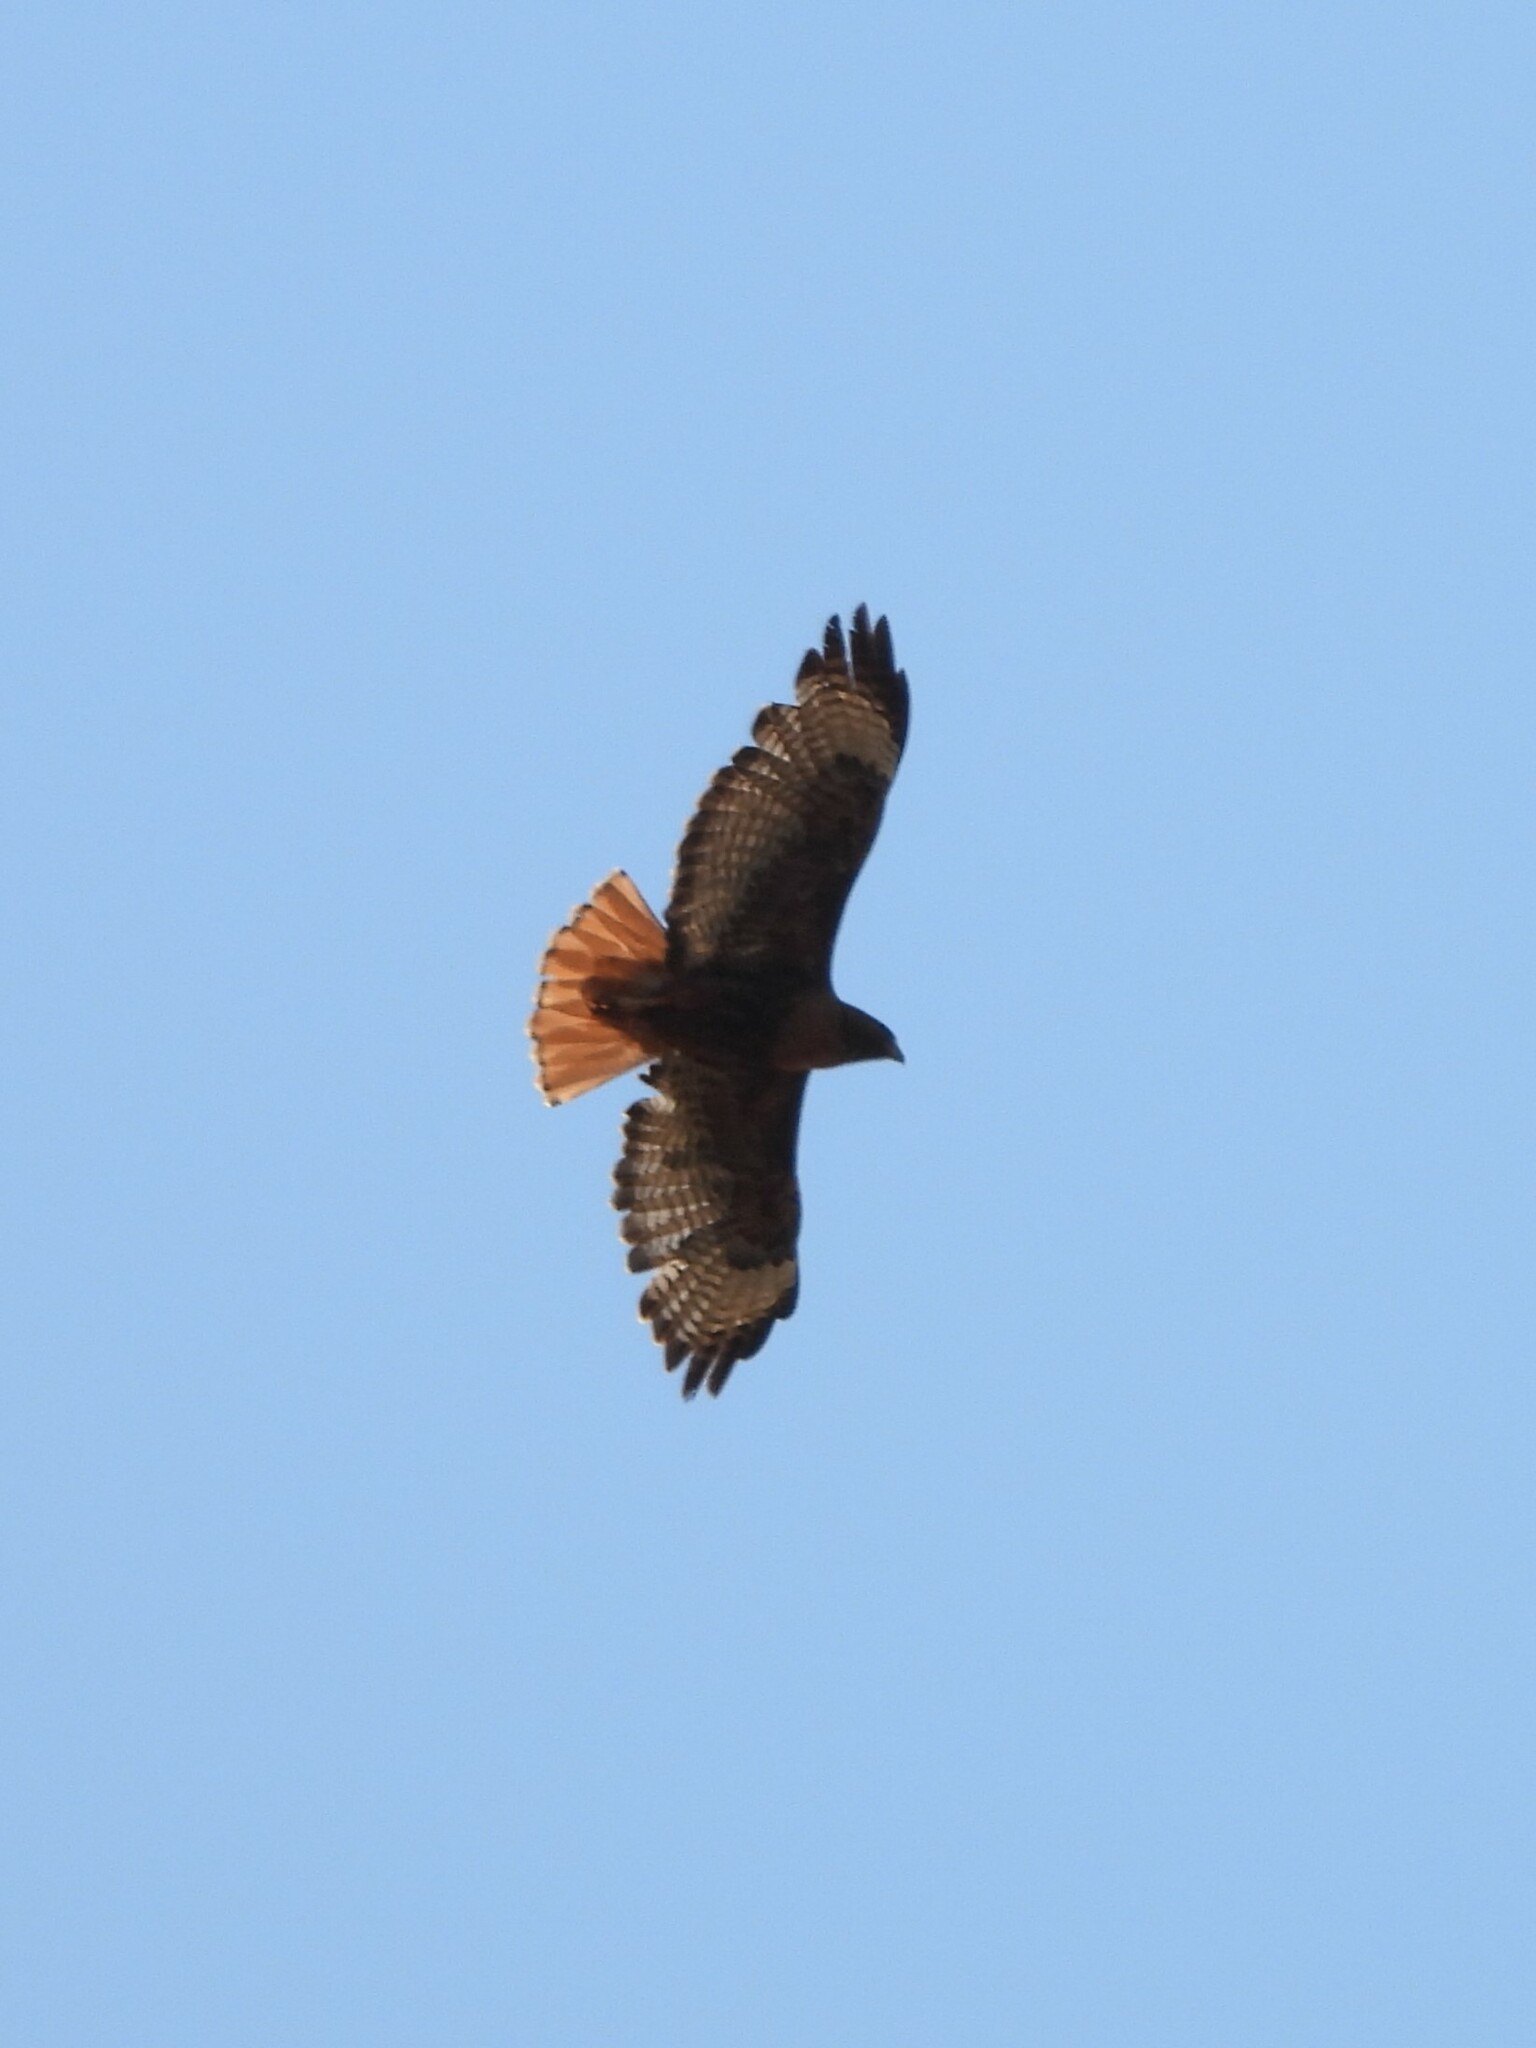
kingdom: Animalia
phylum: Chordata
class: Aves
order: Accipitriformes
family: Accipitridae
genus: Buteo
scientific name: Buteo jamaicensis
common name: Red-tailed hawk
